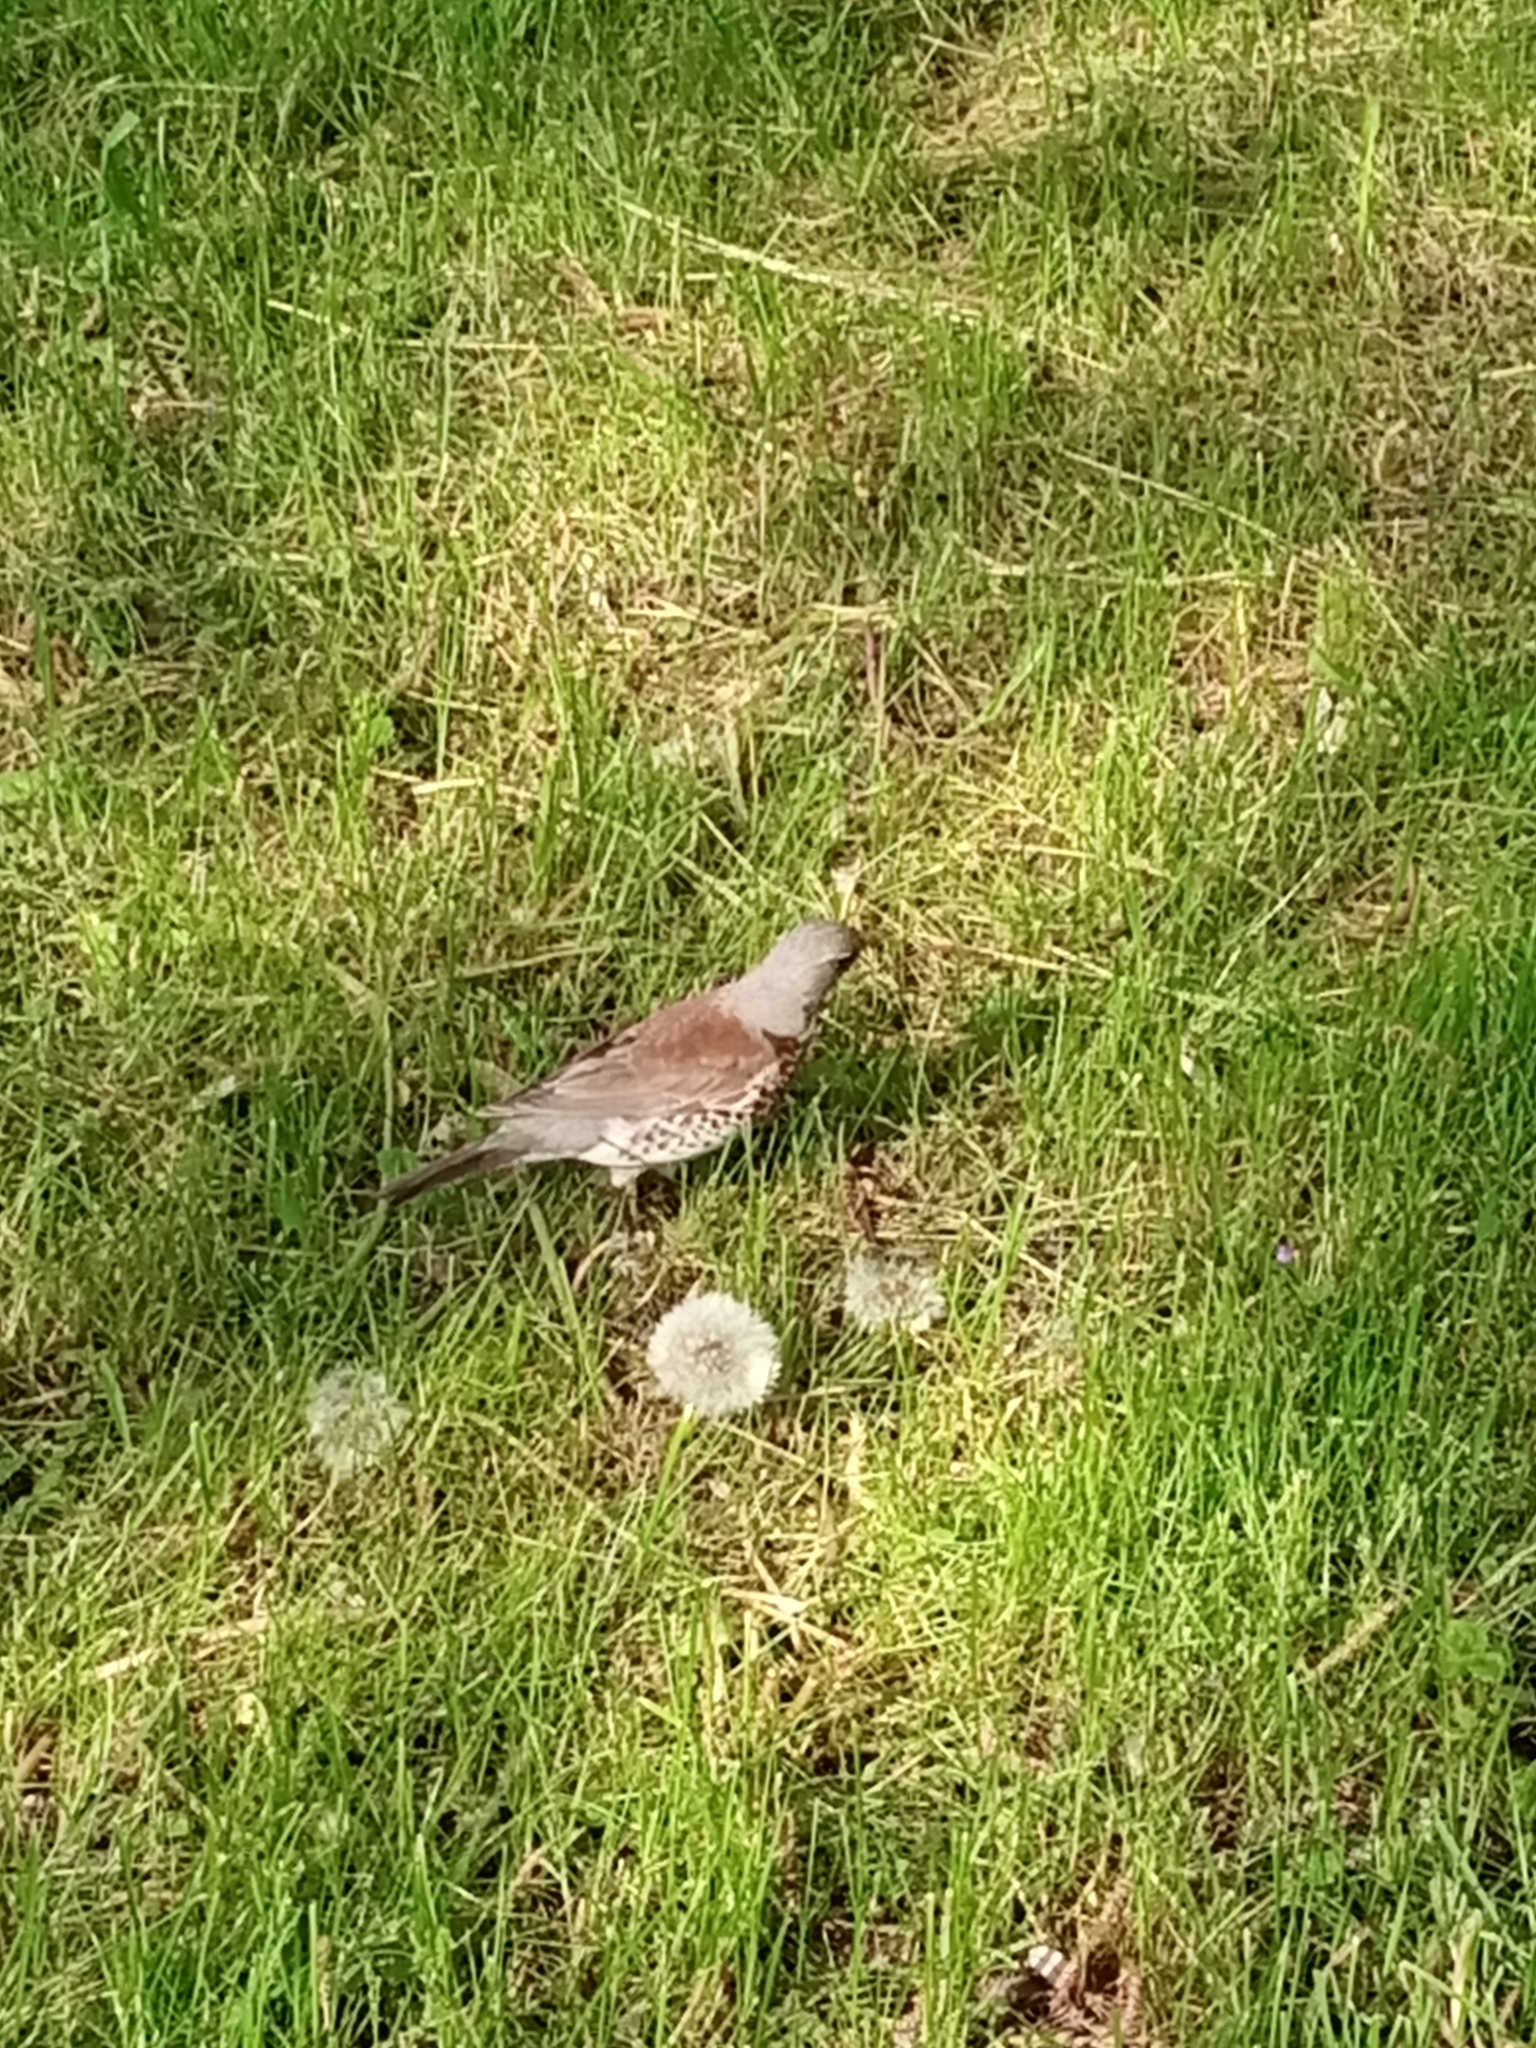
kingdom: Animalia
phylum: Chordata
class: Aves
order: Passeriformes
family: Turdidae
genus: Turdus
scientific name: Turdus pilaris
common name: Fieldfare
